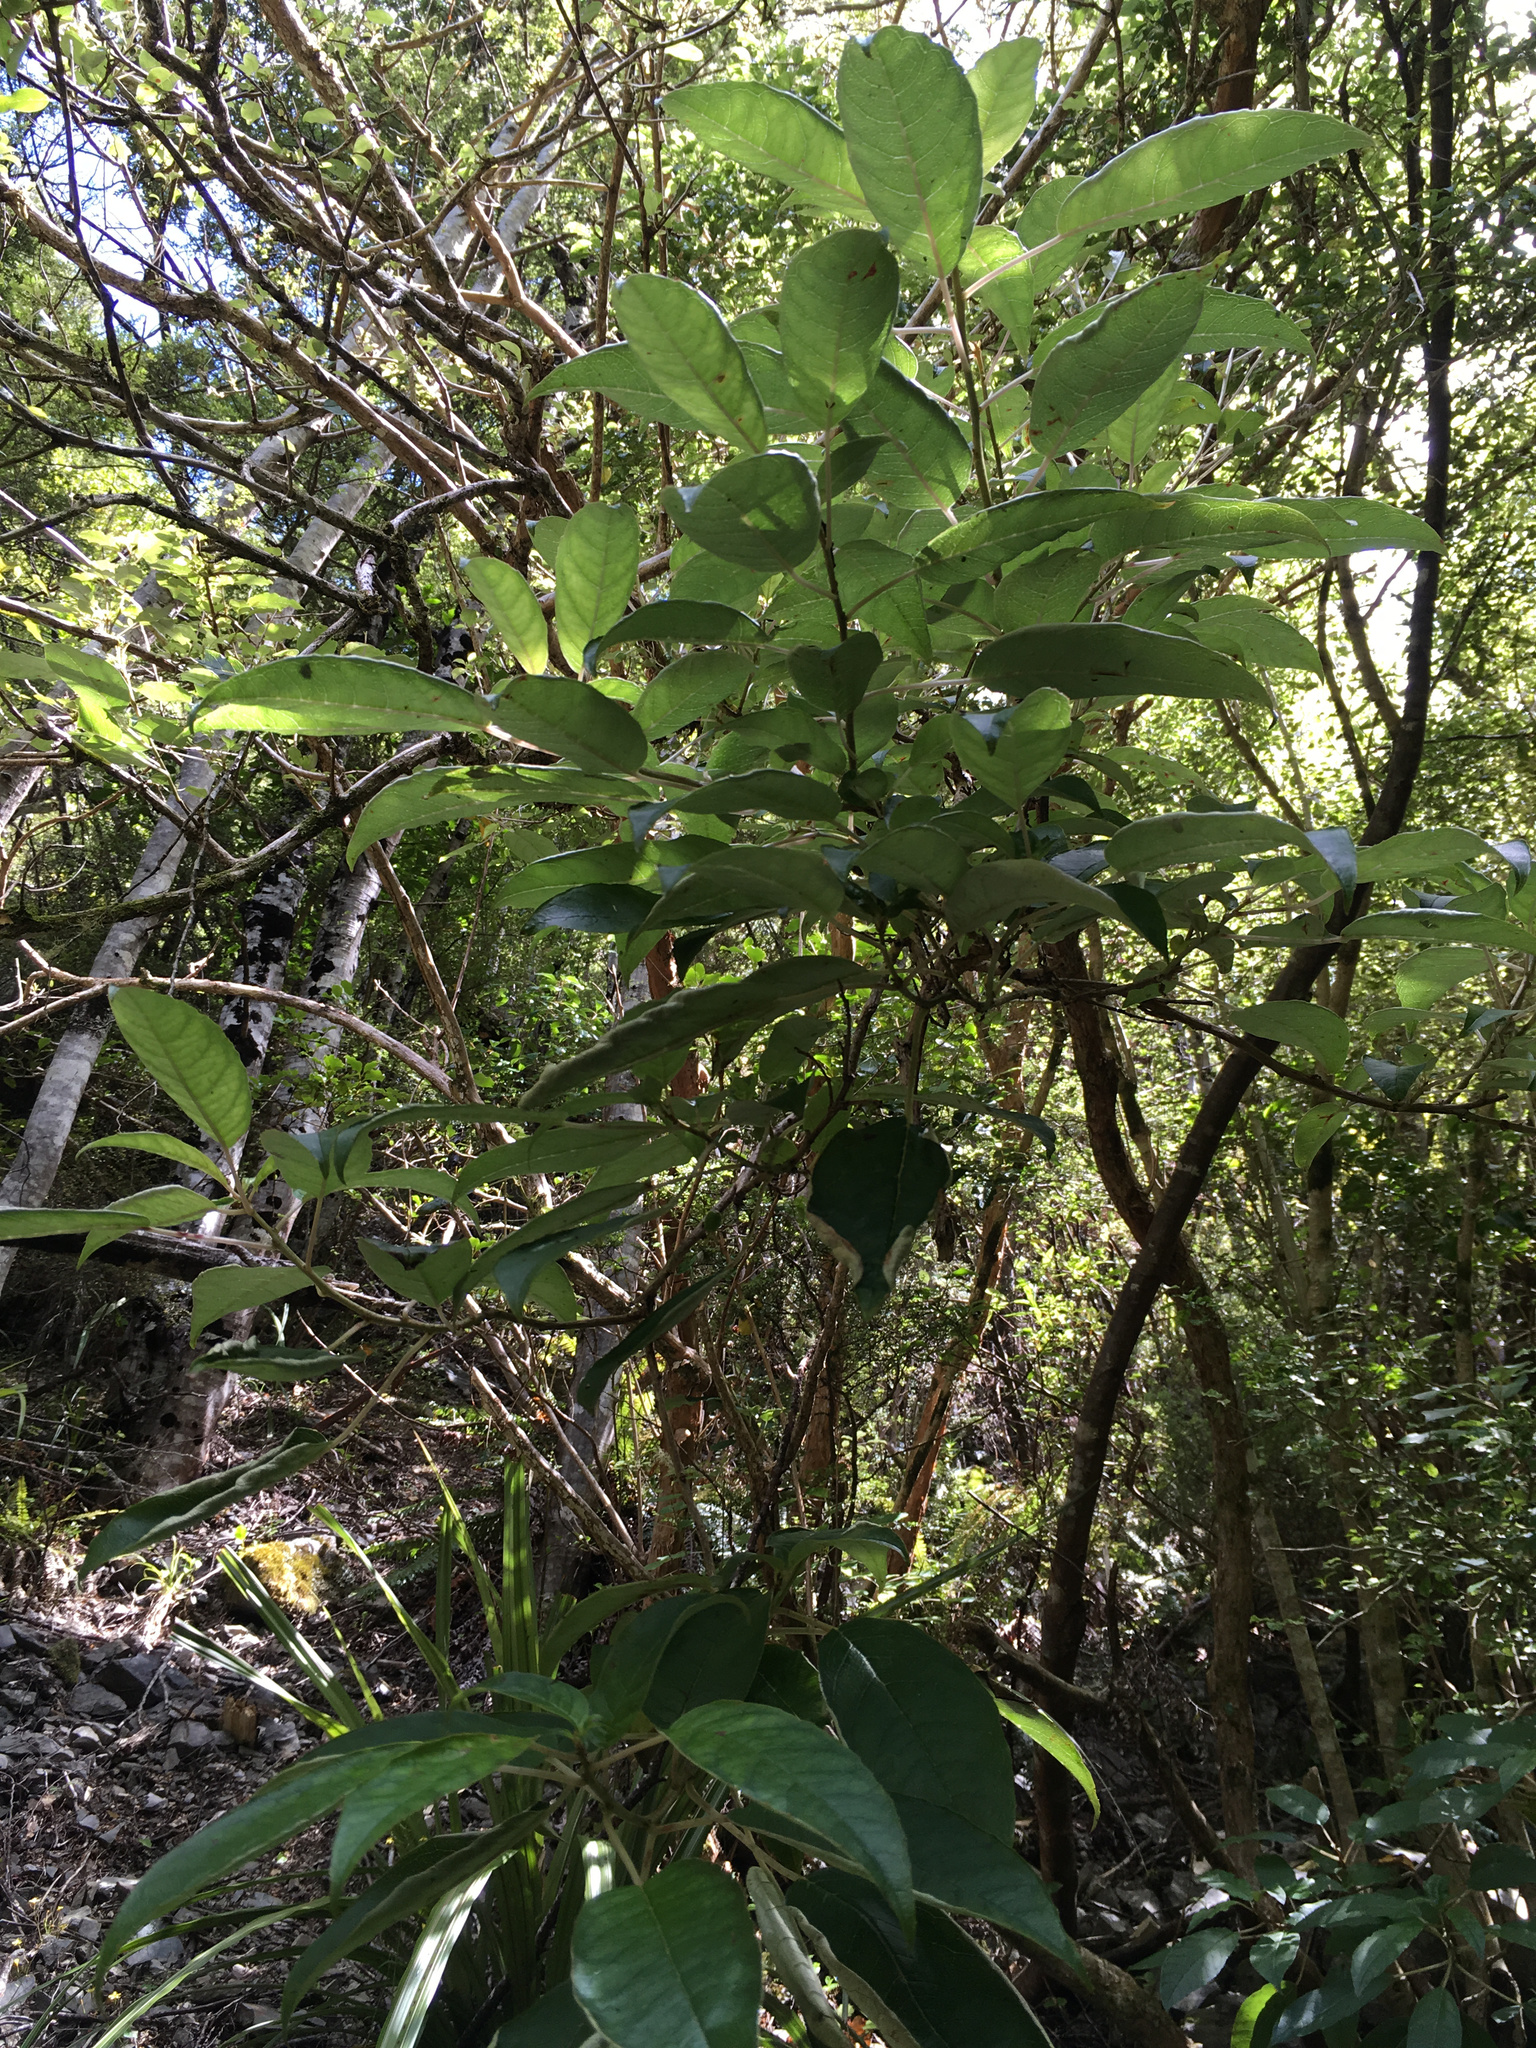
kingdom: Plantae
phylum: Tracheophyta
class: Magnoliopsida
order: Myrtales
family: Onagraceae
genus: Fuchsia
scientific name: Fuchsia excorticata
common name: Tree fuchsia
